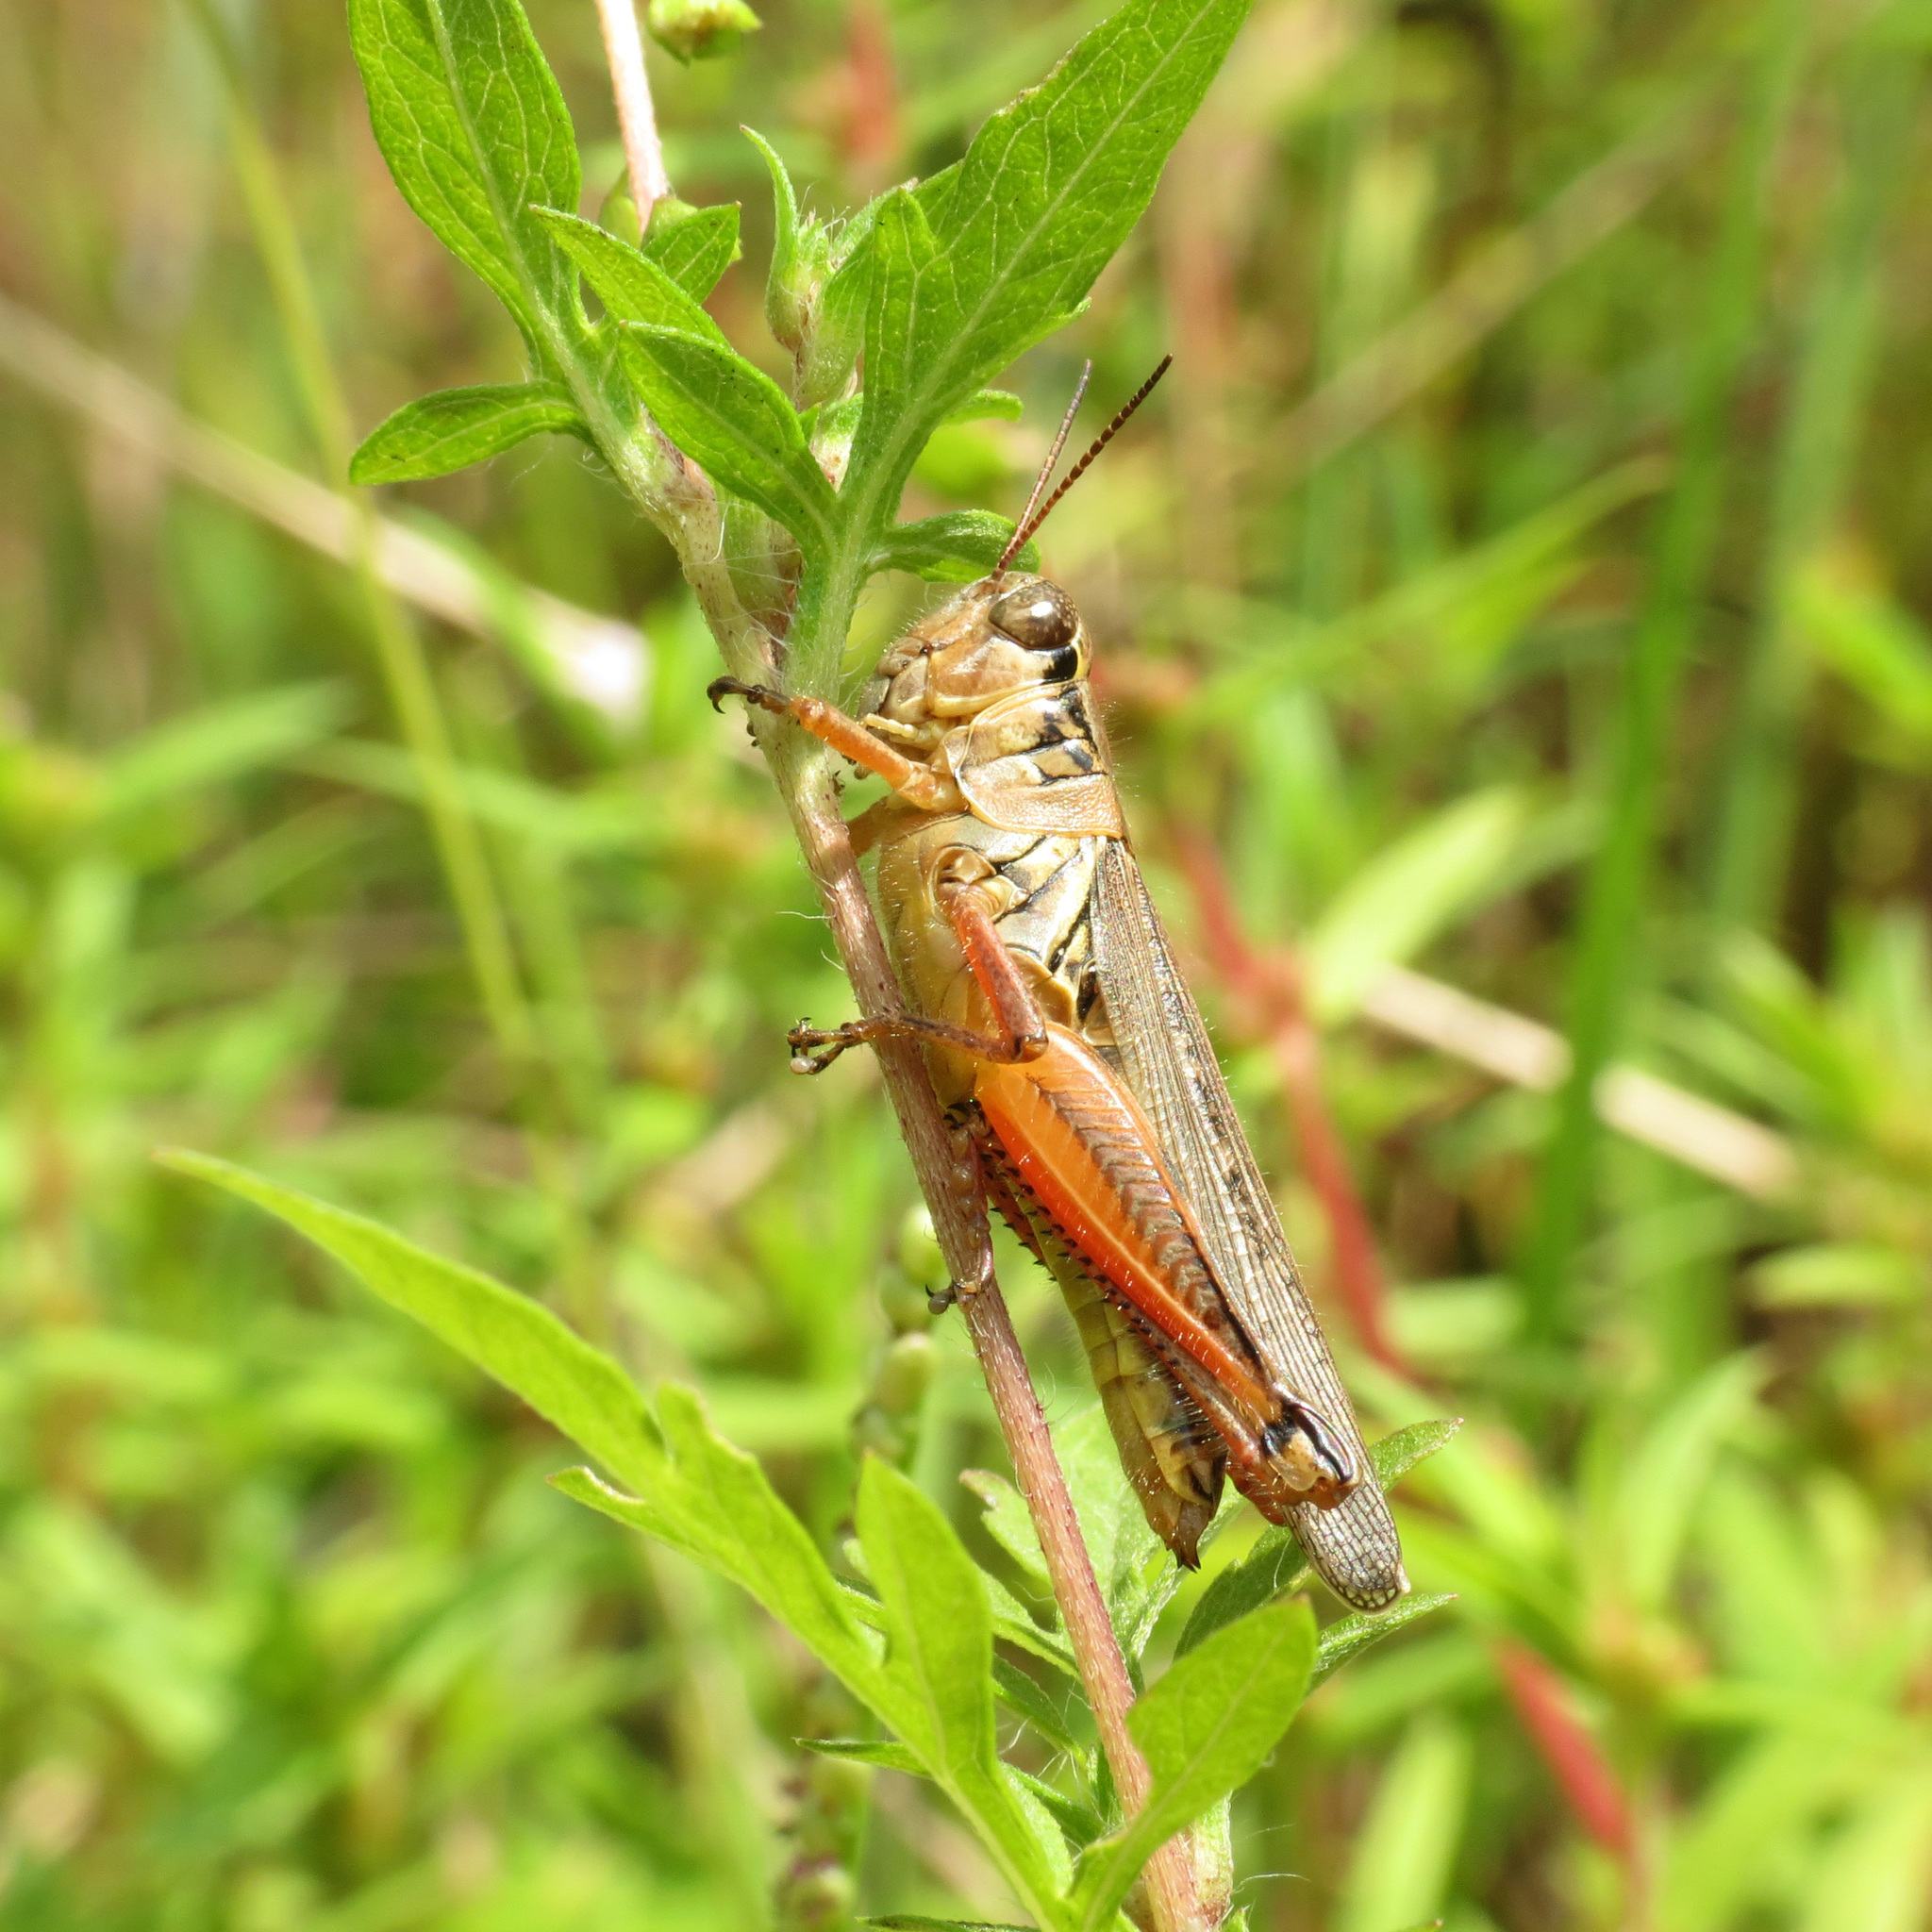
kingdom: Animalia
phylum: Arthropoda
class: Insecta
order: Orthoptera
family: Acrididae
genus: Melanoplus
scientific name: Melanoplus femurrubrum
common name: Red-legged grasshopper
